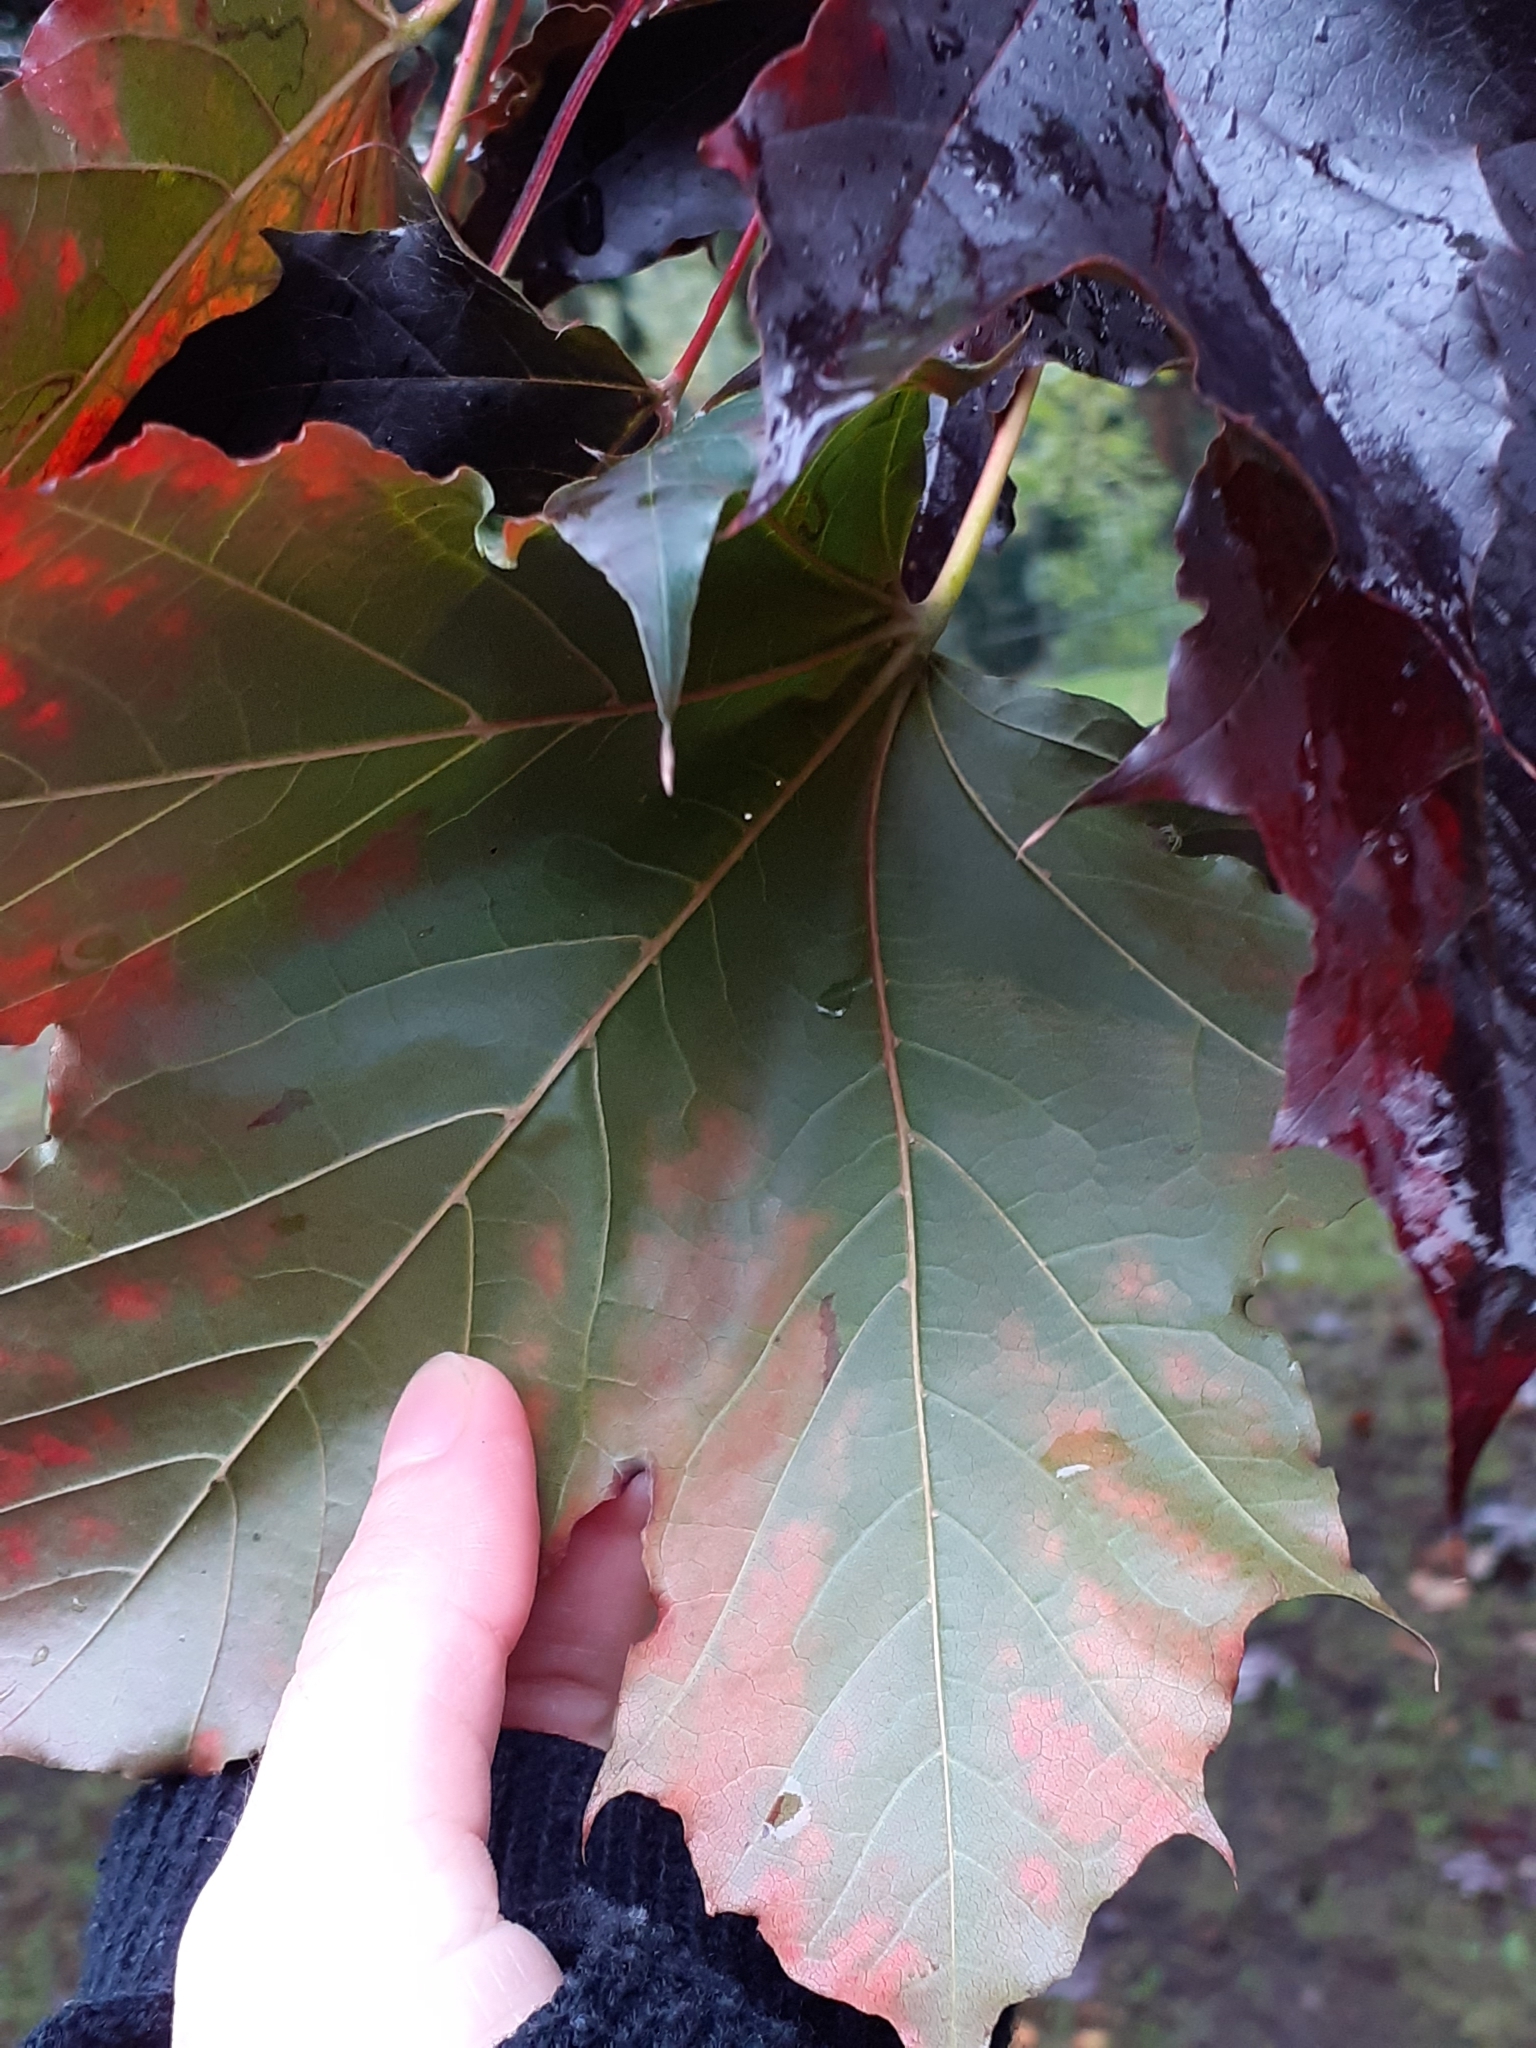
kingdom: Plantae
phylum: Tracheophyta
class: Magnoliopsida
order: Sapindales
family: Sapindaceae
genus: Acer
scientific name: Acer platanoides
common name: Norway maple
